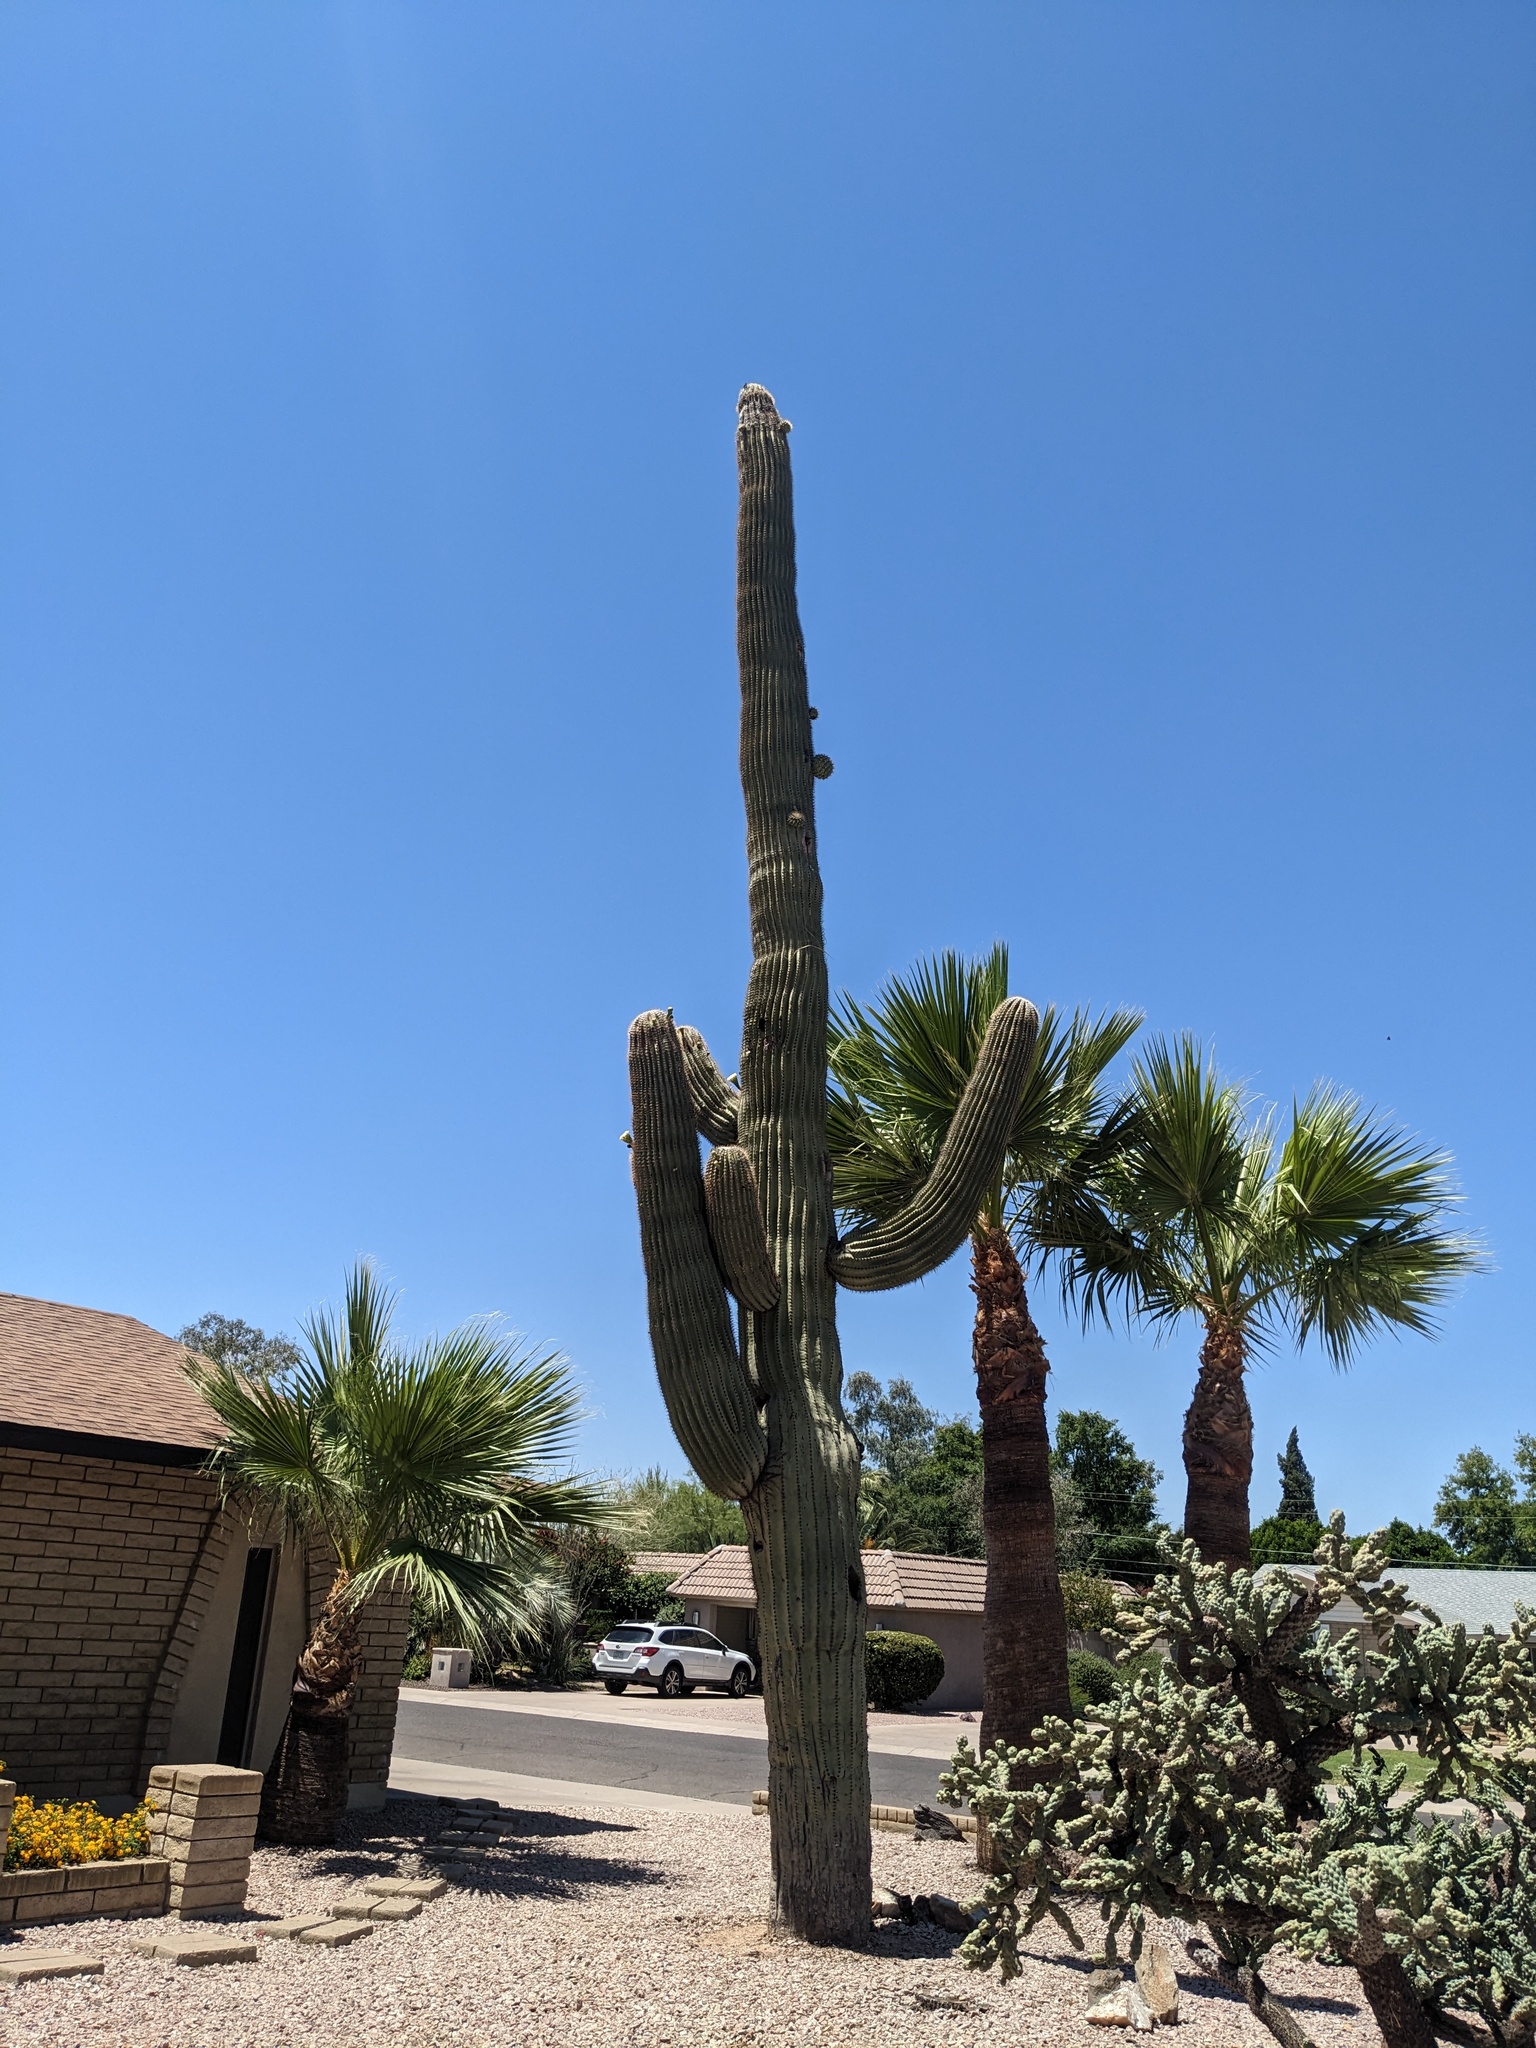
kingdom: Plantae
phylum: Tracheophyta
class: Magnoliopsida
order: Caryophyllales
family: Cactaceae
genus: Carnegiea
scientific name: Carnegiea gigantea
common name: Saguaro
